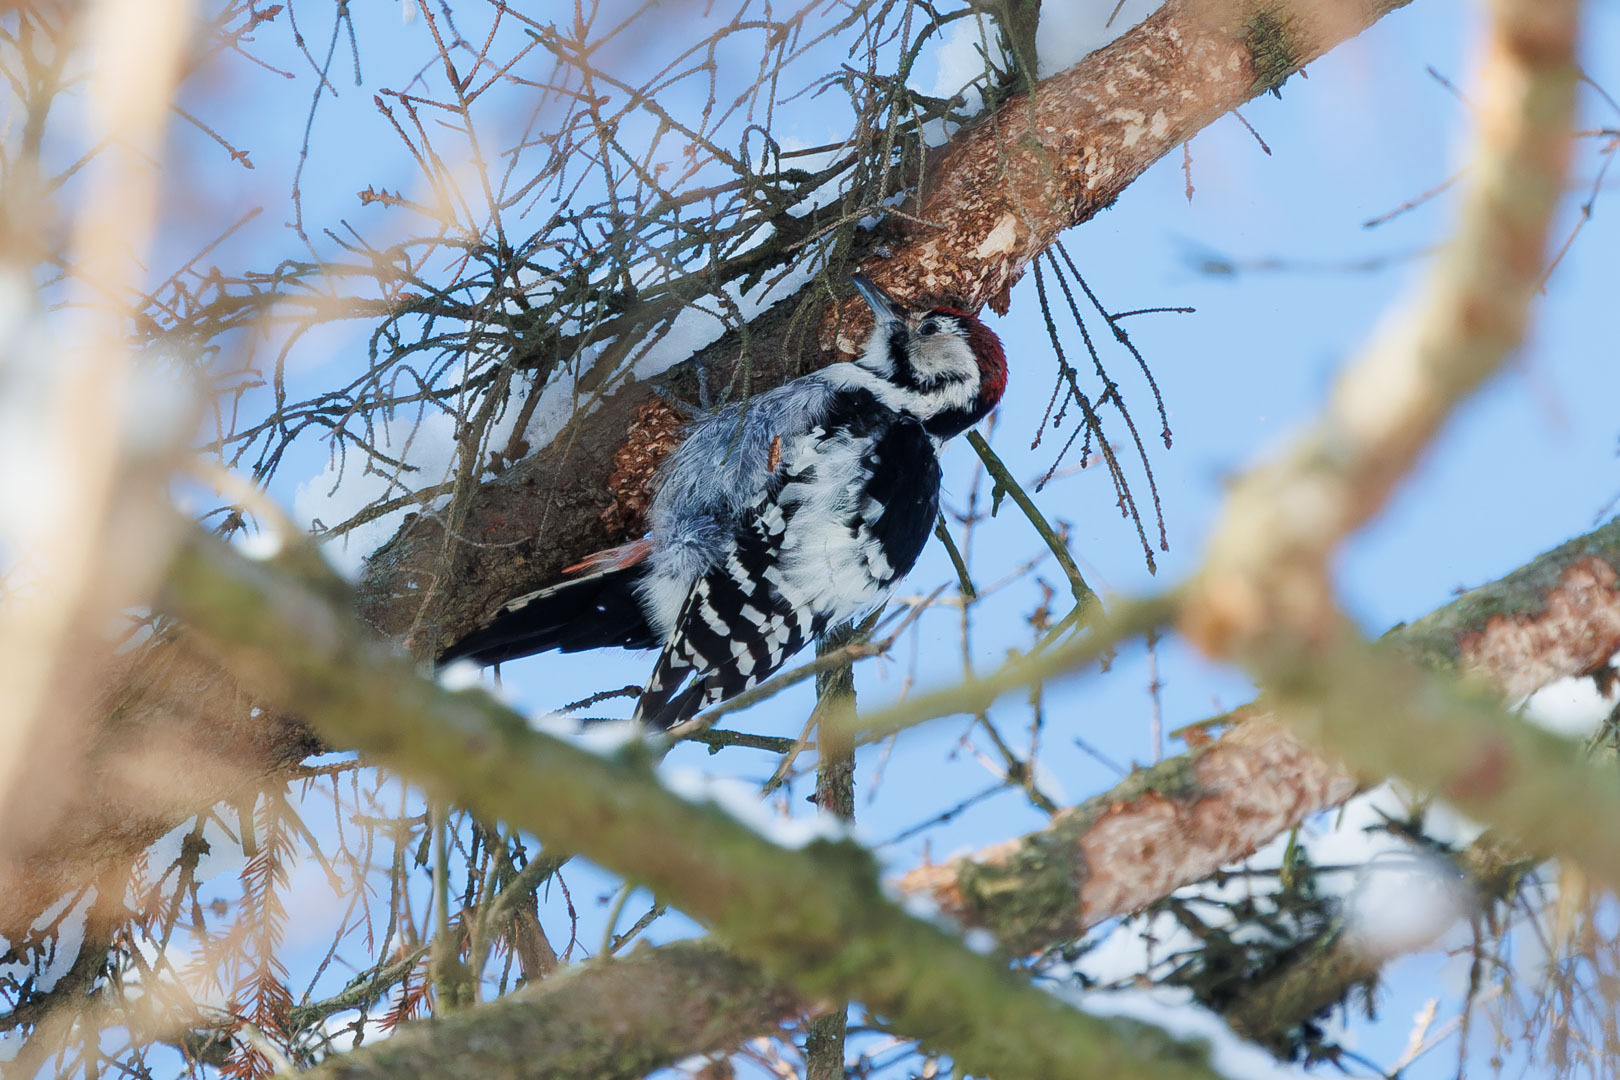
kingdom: Animalia
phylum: Chordata
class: Aves
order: Piciformes
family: Picidae
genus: Dendrocopos
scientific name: Dendrocopos leucotos
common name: White-backed woodpecker
